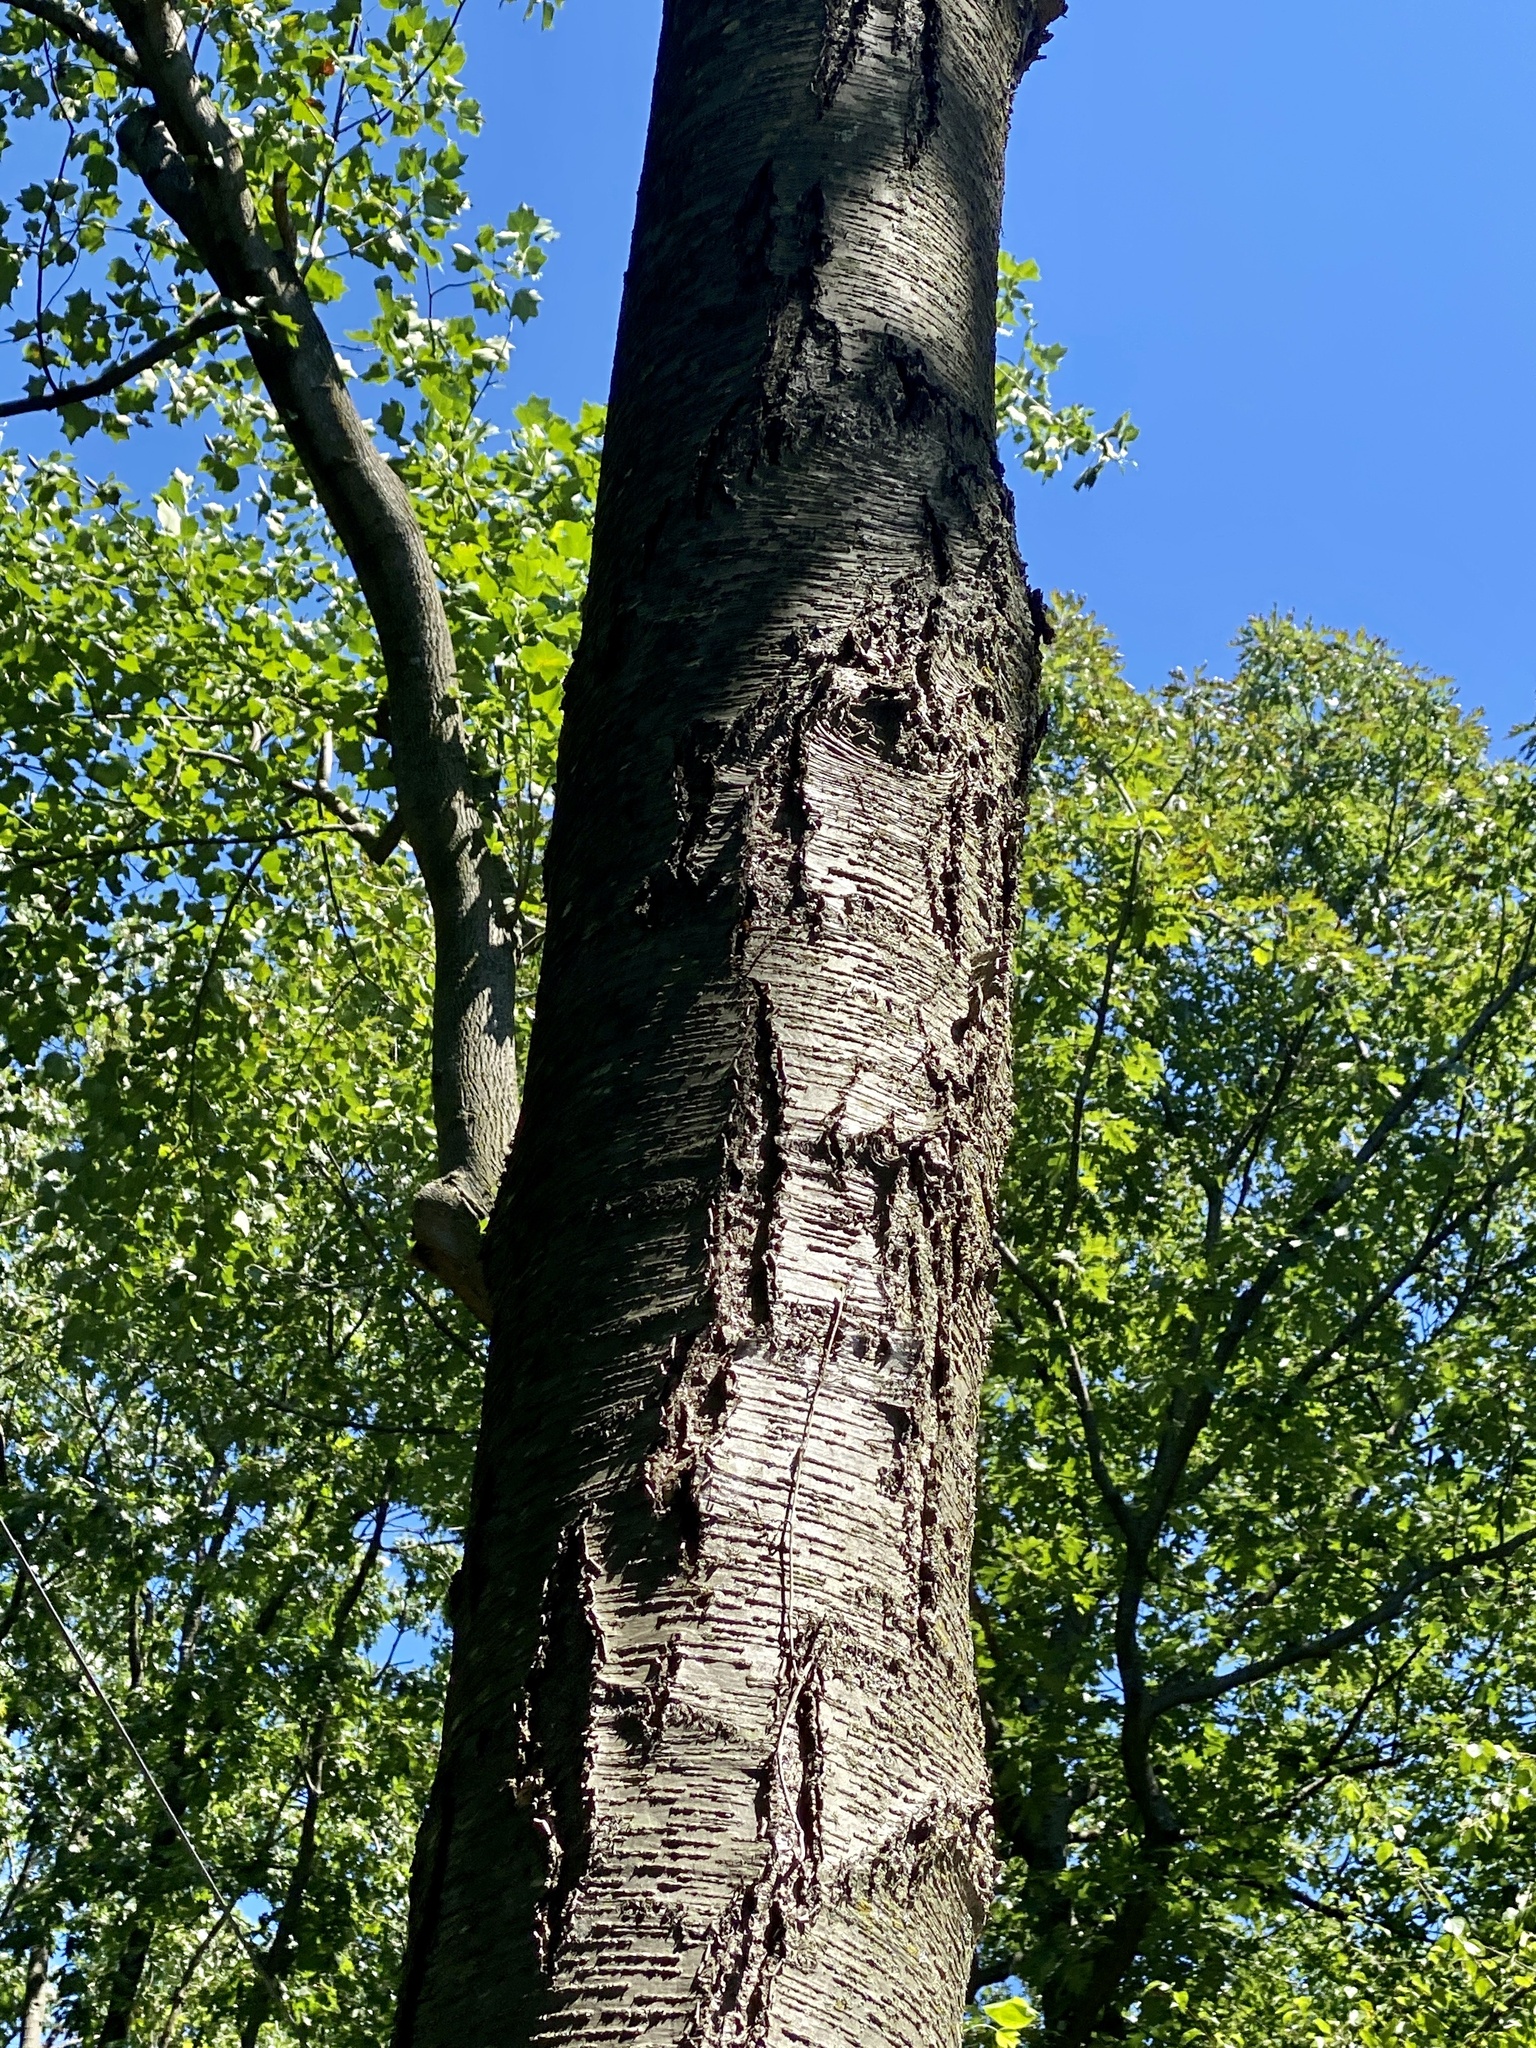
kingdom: Plantae
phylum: Tracheophyta
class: Magnoliopsida
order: Fagales
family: Betulaceae
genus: Betula
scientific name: Betula lenta
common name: Black birch
